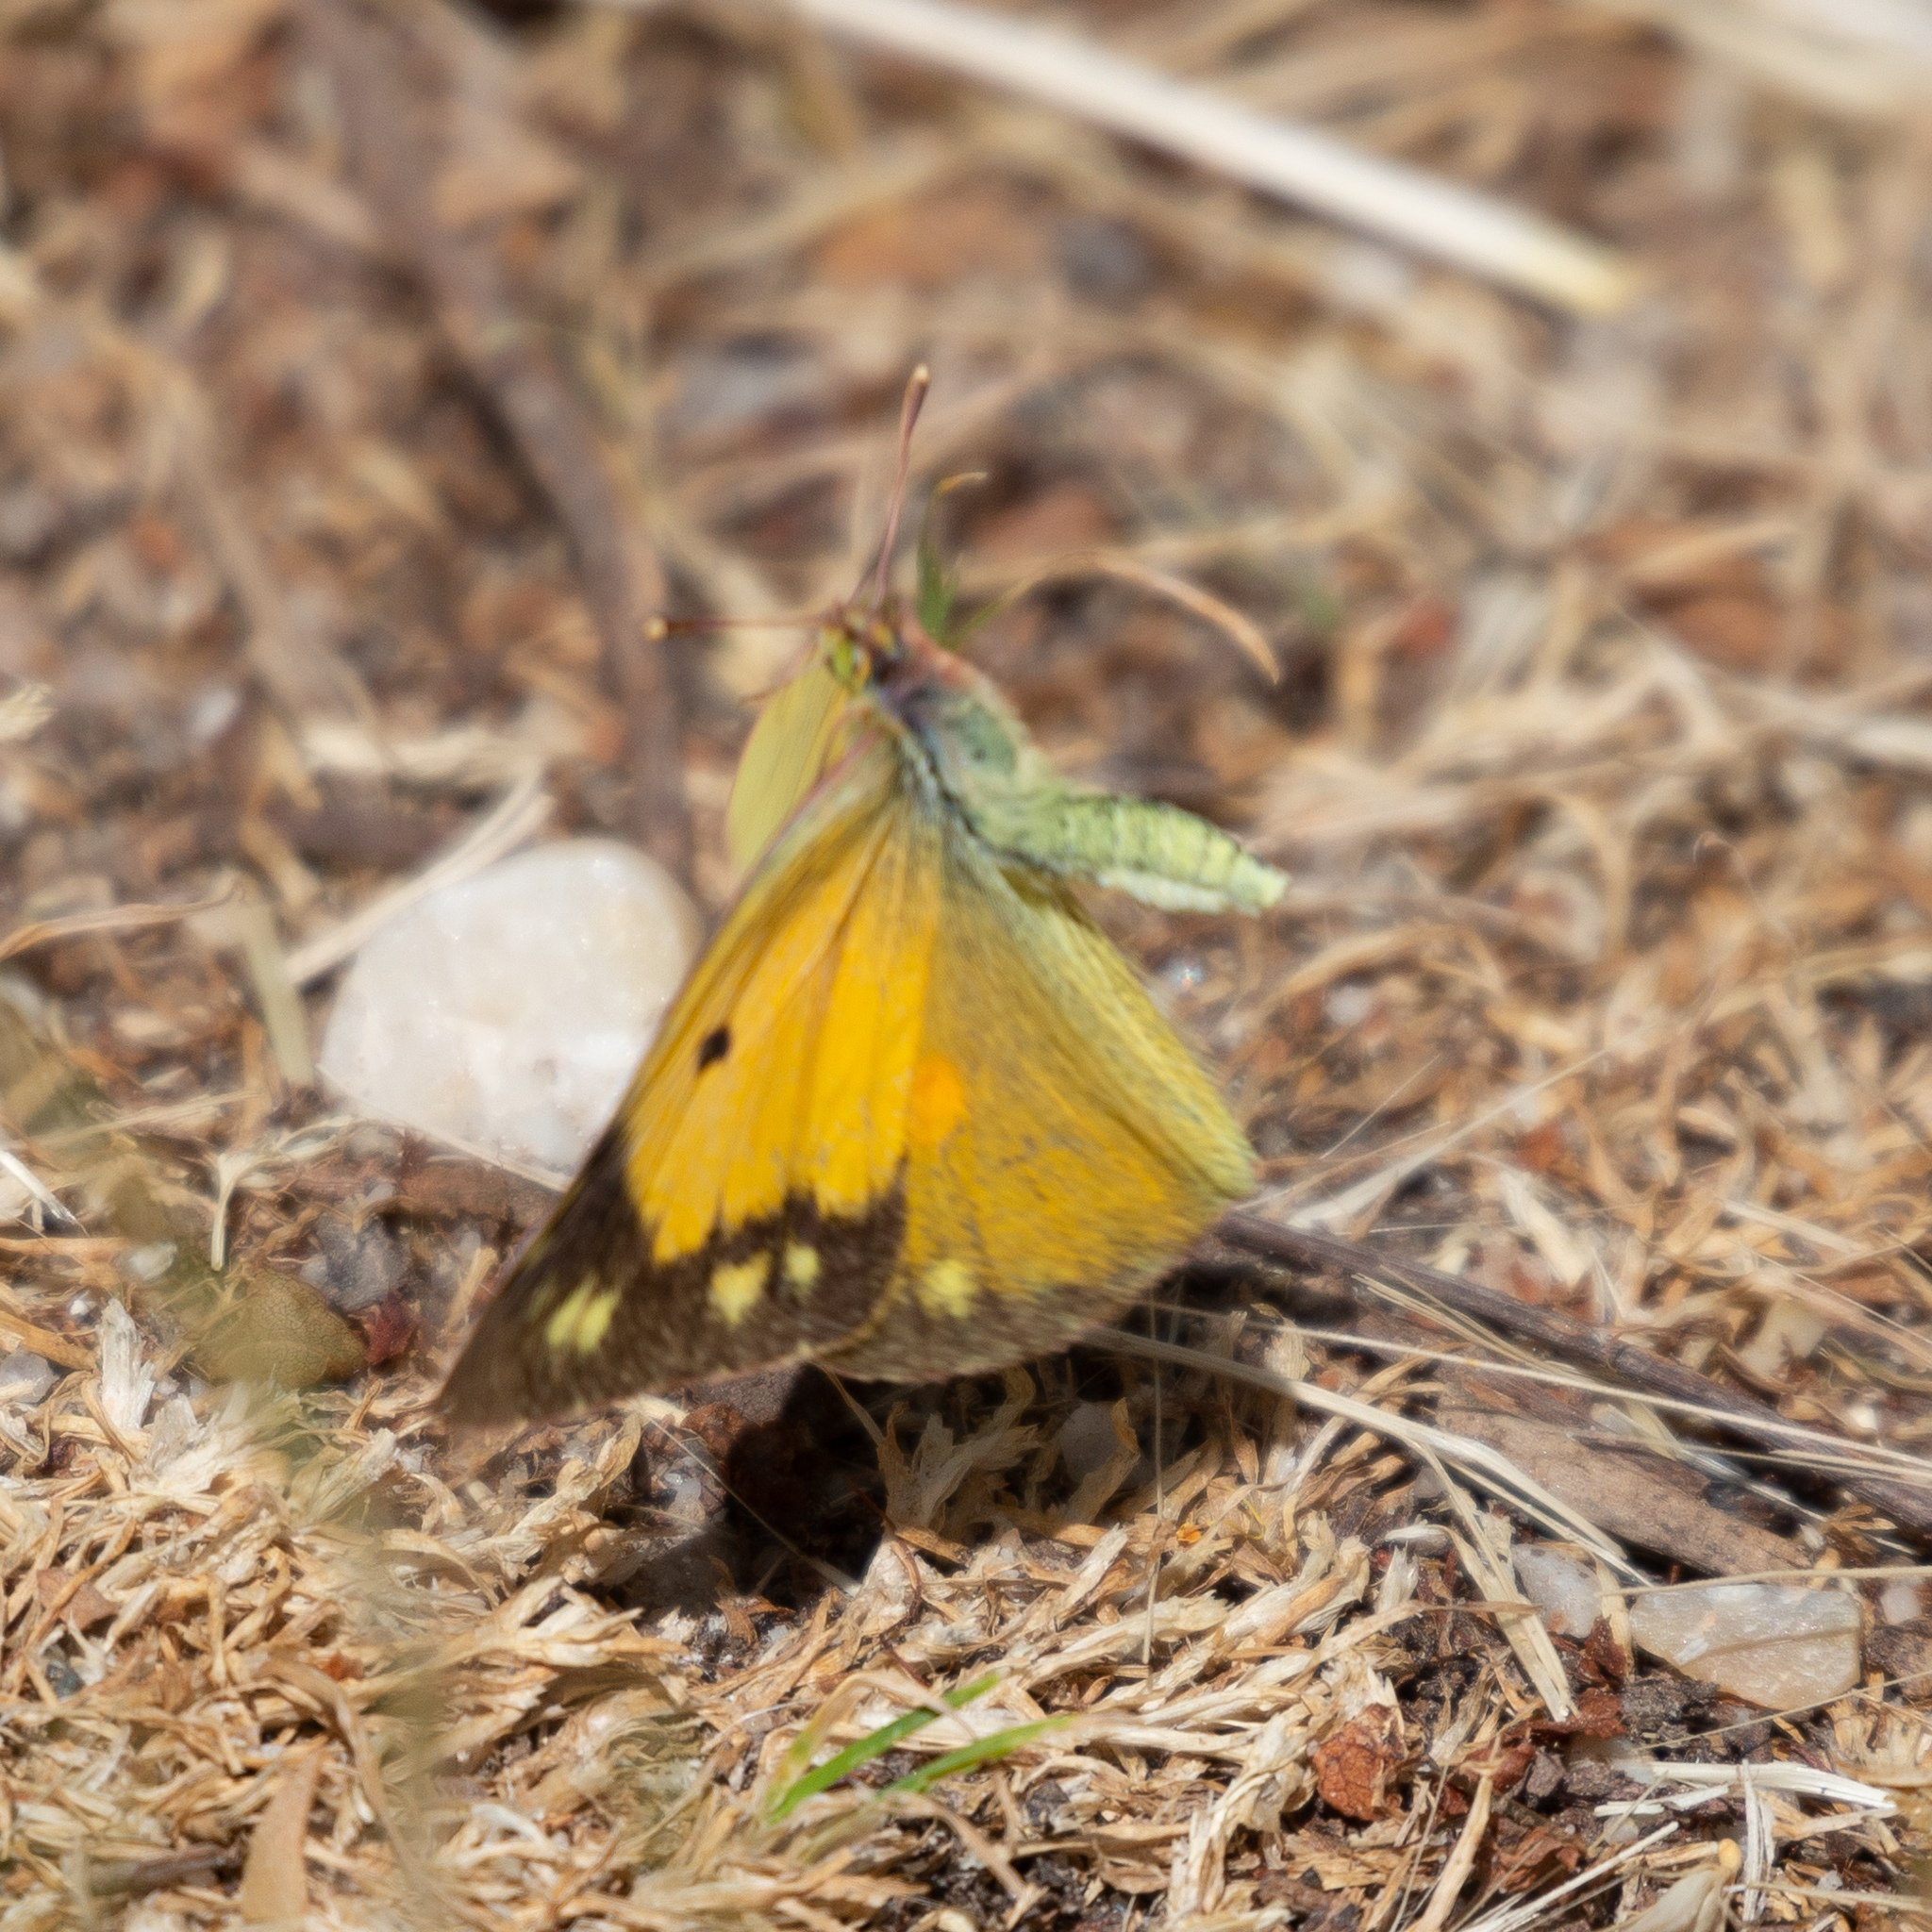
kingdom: Animalia
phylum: Arthropoda
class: Insecta
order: Lepidoptera
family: Pieridae
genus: Colias
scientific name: Colias croceus
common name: Clouded yellow
